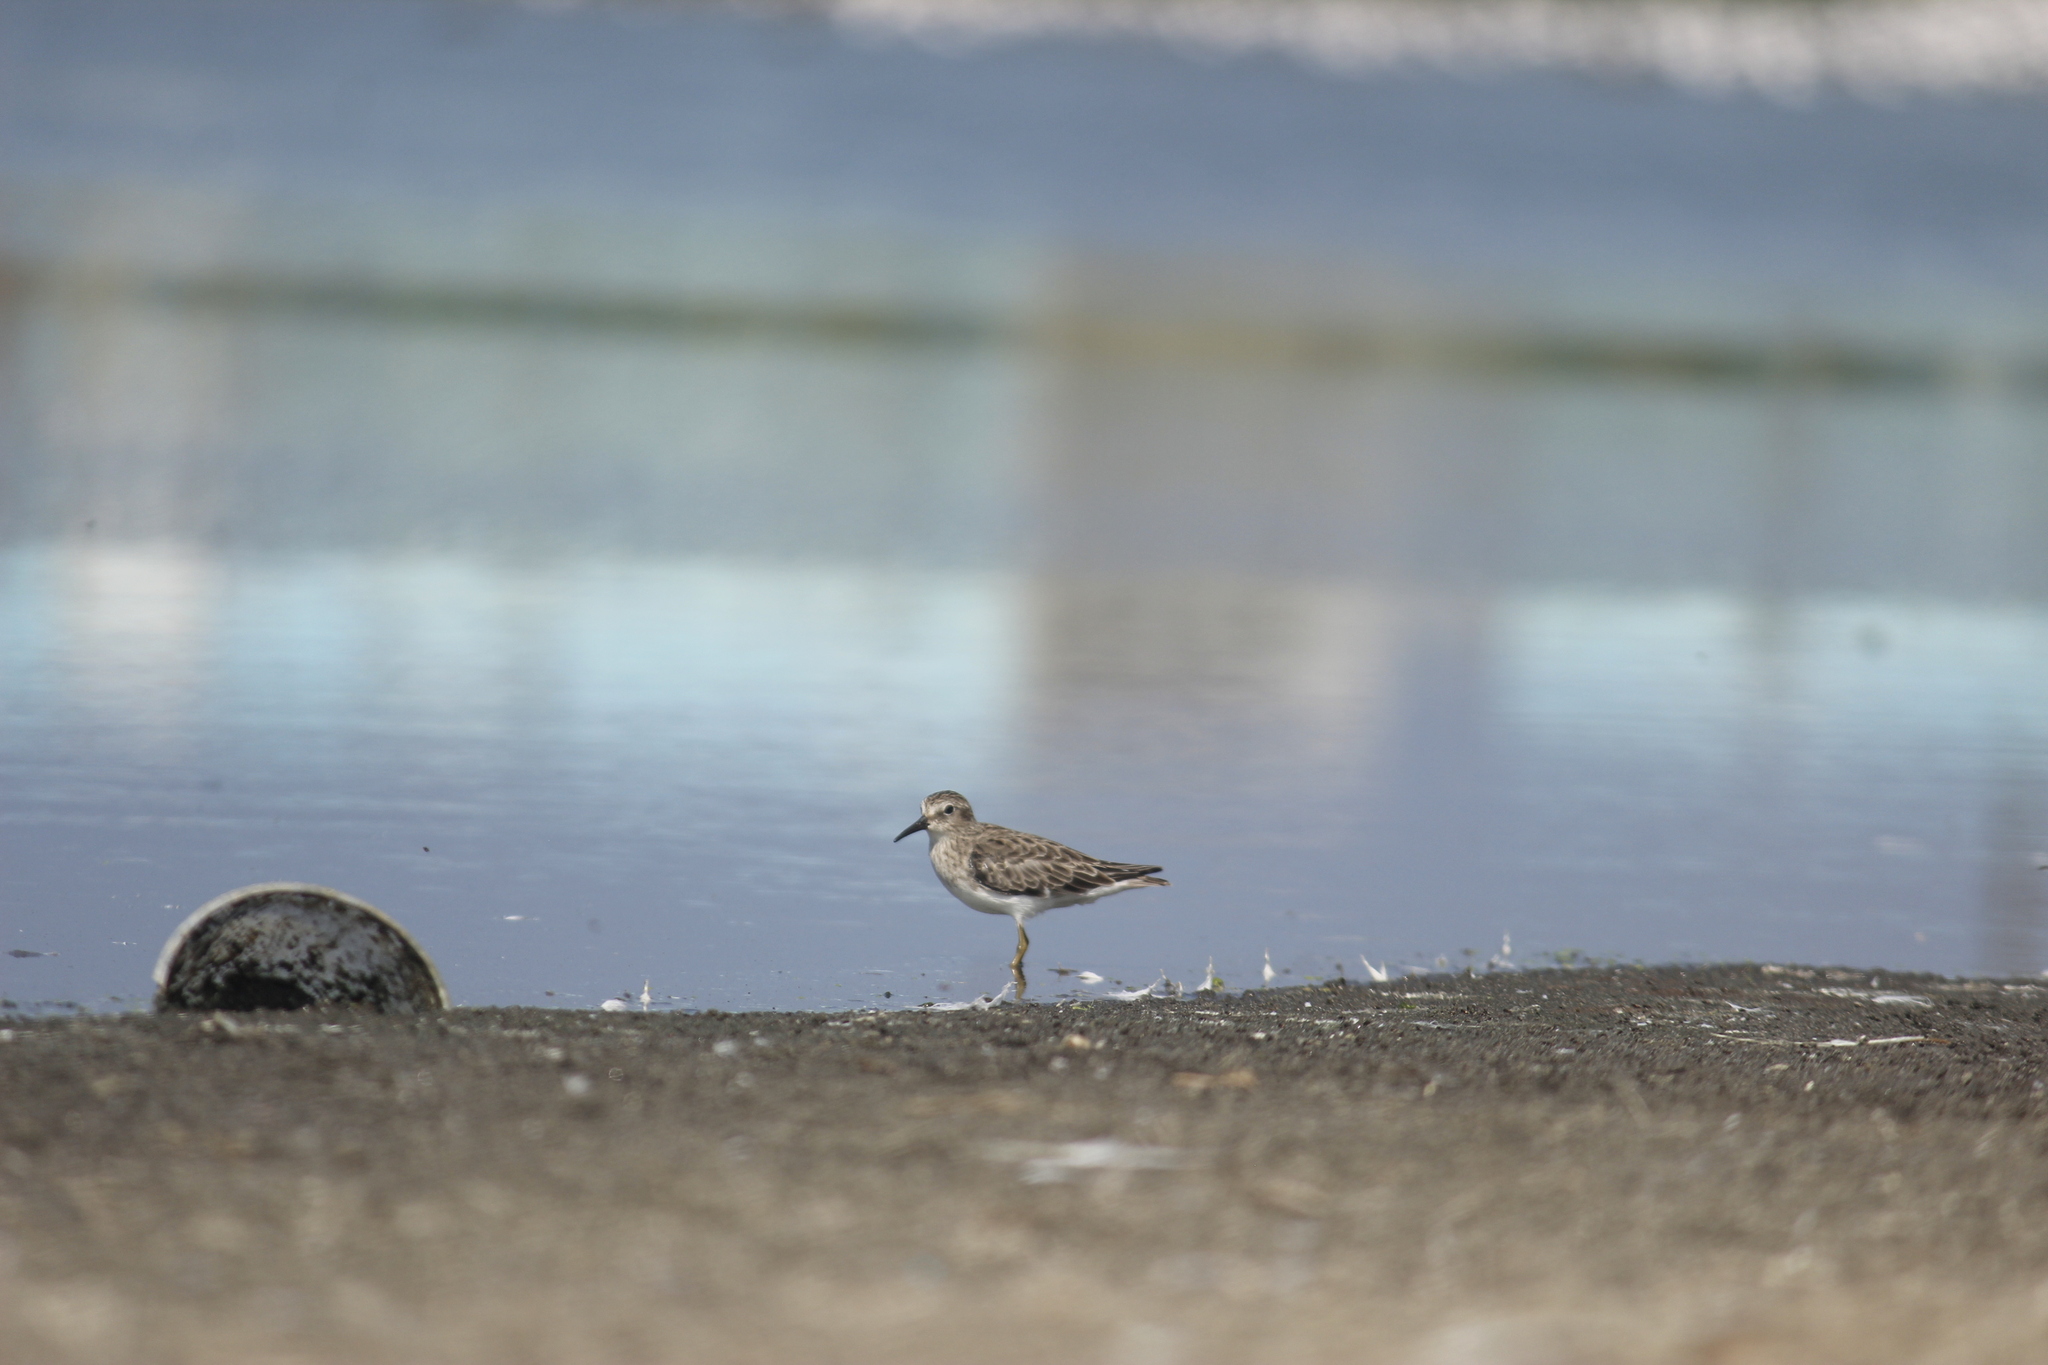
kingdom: Animalia
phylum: Chordata
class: Aves
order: Charadriiformes
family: Scolopacidae
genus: Calidris
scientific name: Calidris minutilla
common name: Least sandpiper
